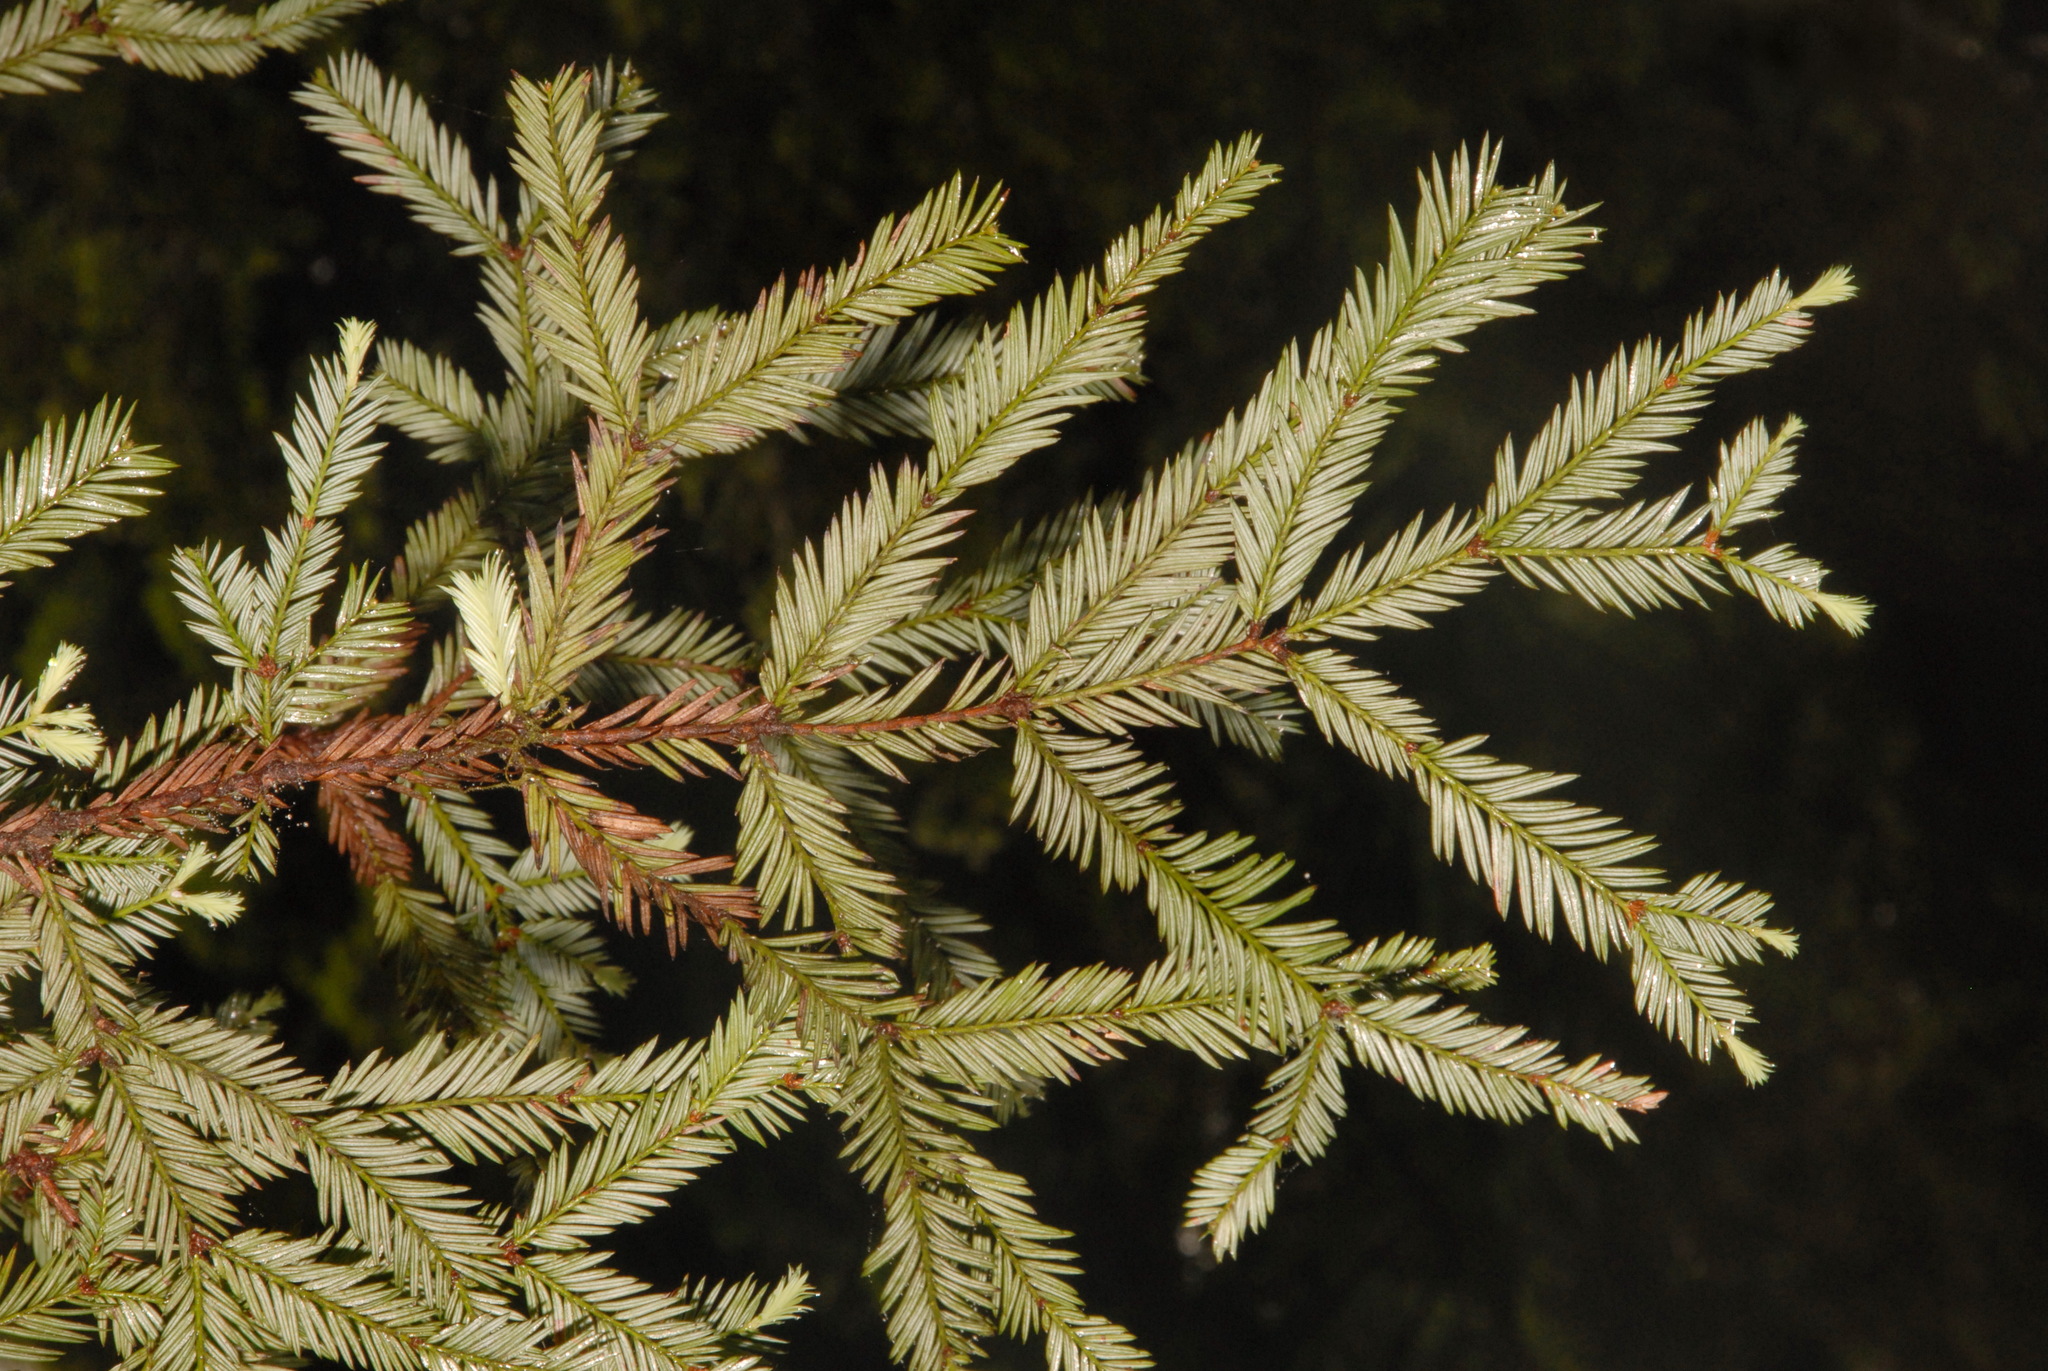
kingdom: Plantae
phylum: Tracheophyta
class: Pinopsida
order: Pinales
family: Cupressaceae
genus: Sequoia
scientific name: Sequoia sempervirens
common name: Coast redwood
